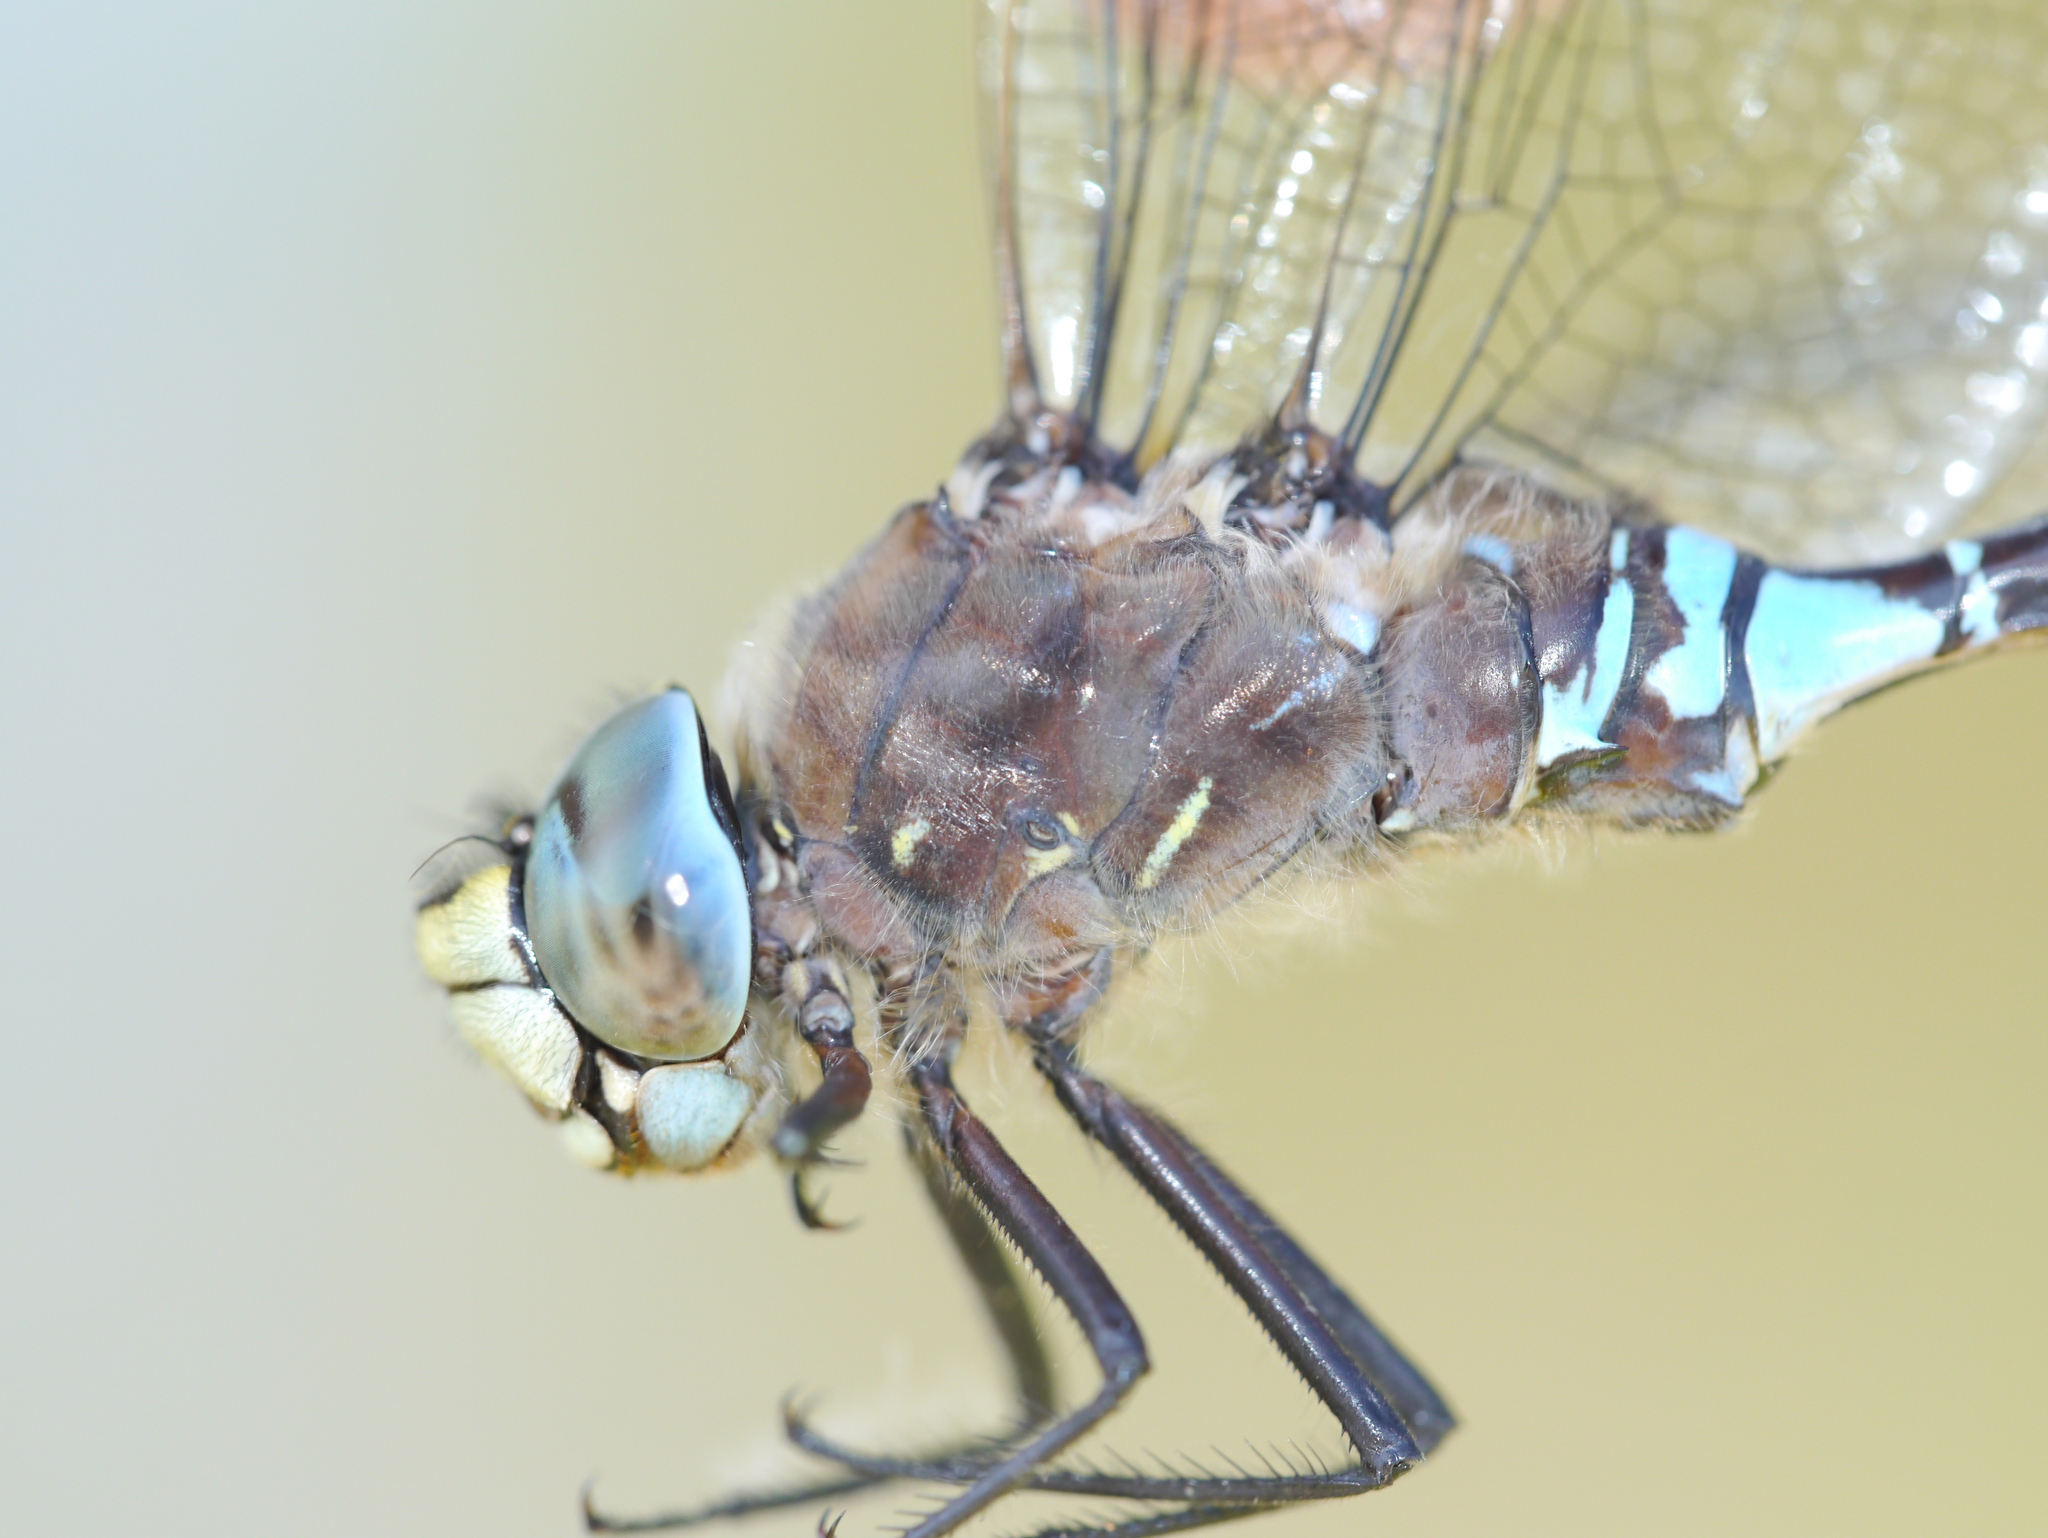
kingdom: Animalia
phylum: Arthropoda
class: Insecta
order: Odonata
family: Aeshnidae
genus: Aeshna
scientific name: Aeshna interrupta
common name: Variable darner
